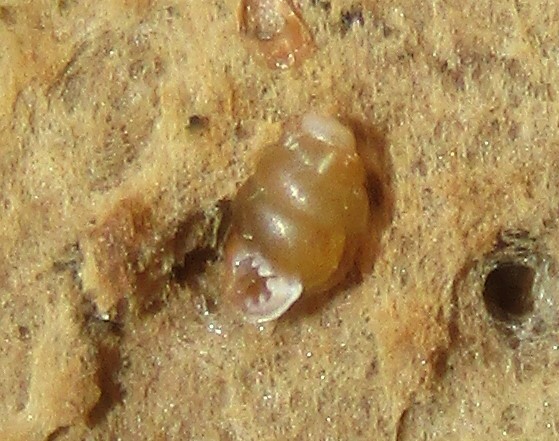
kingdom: Animalia
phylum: Mollusca
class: Gastropoda
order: Stylommatophora
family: Vertiginidae
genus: Vertigo
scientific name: Vertigo pusilla
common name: Wall whorl snail
